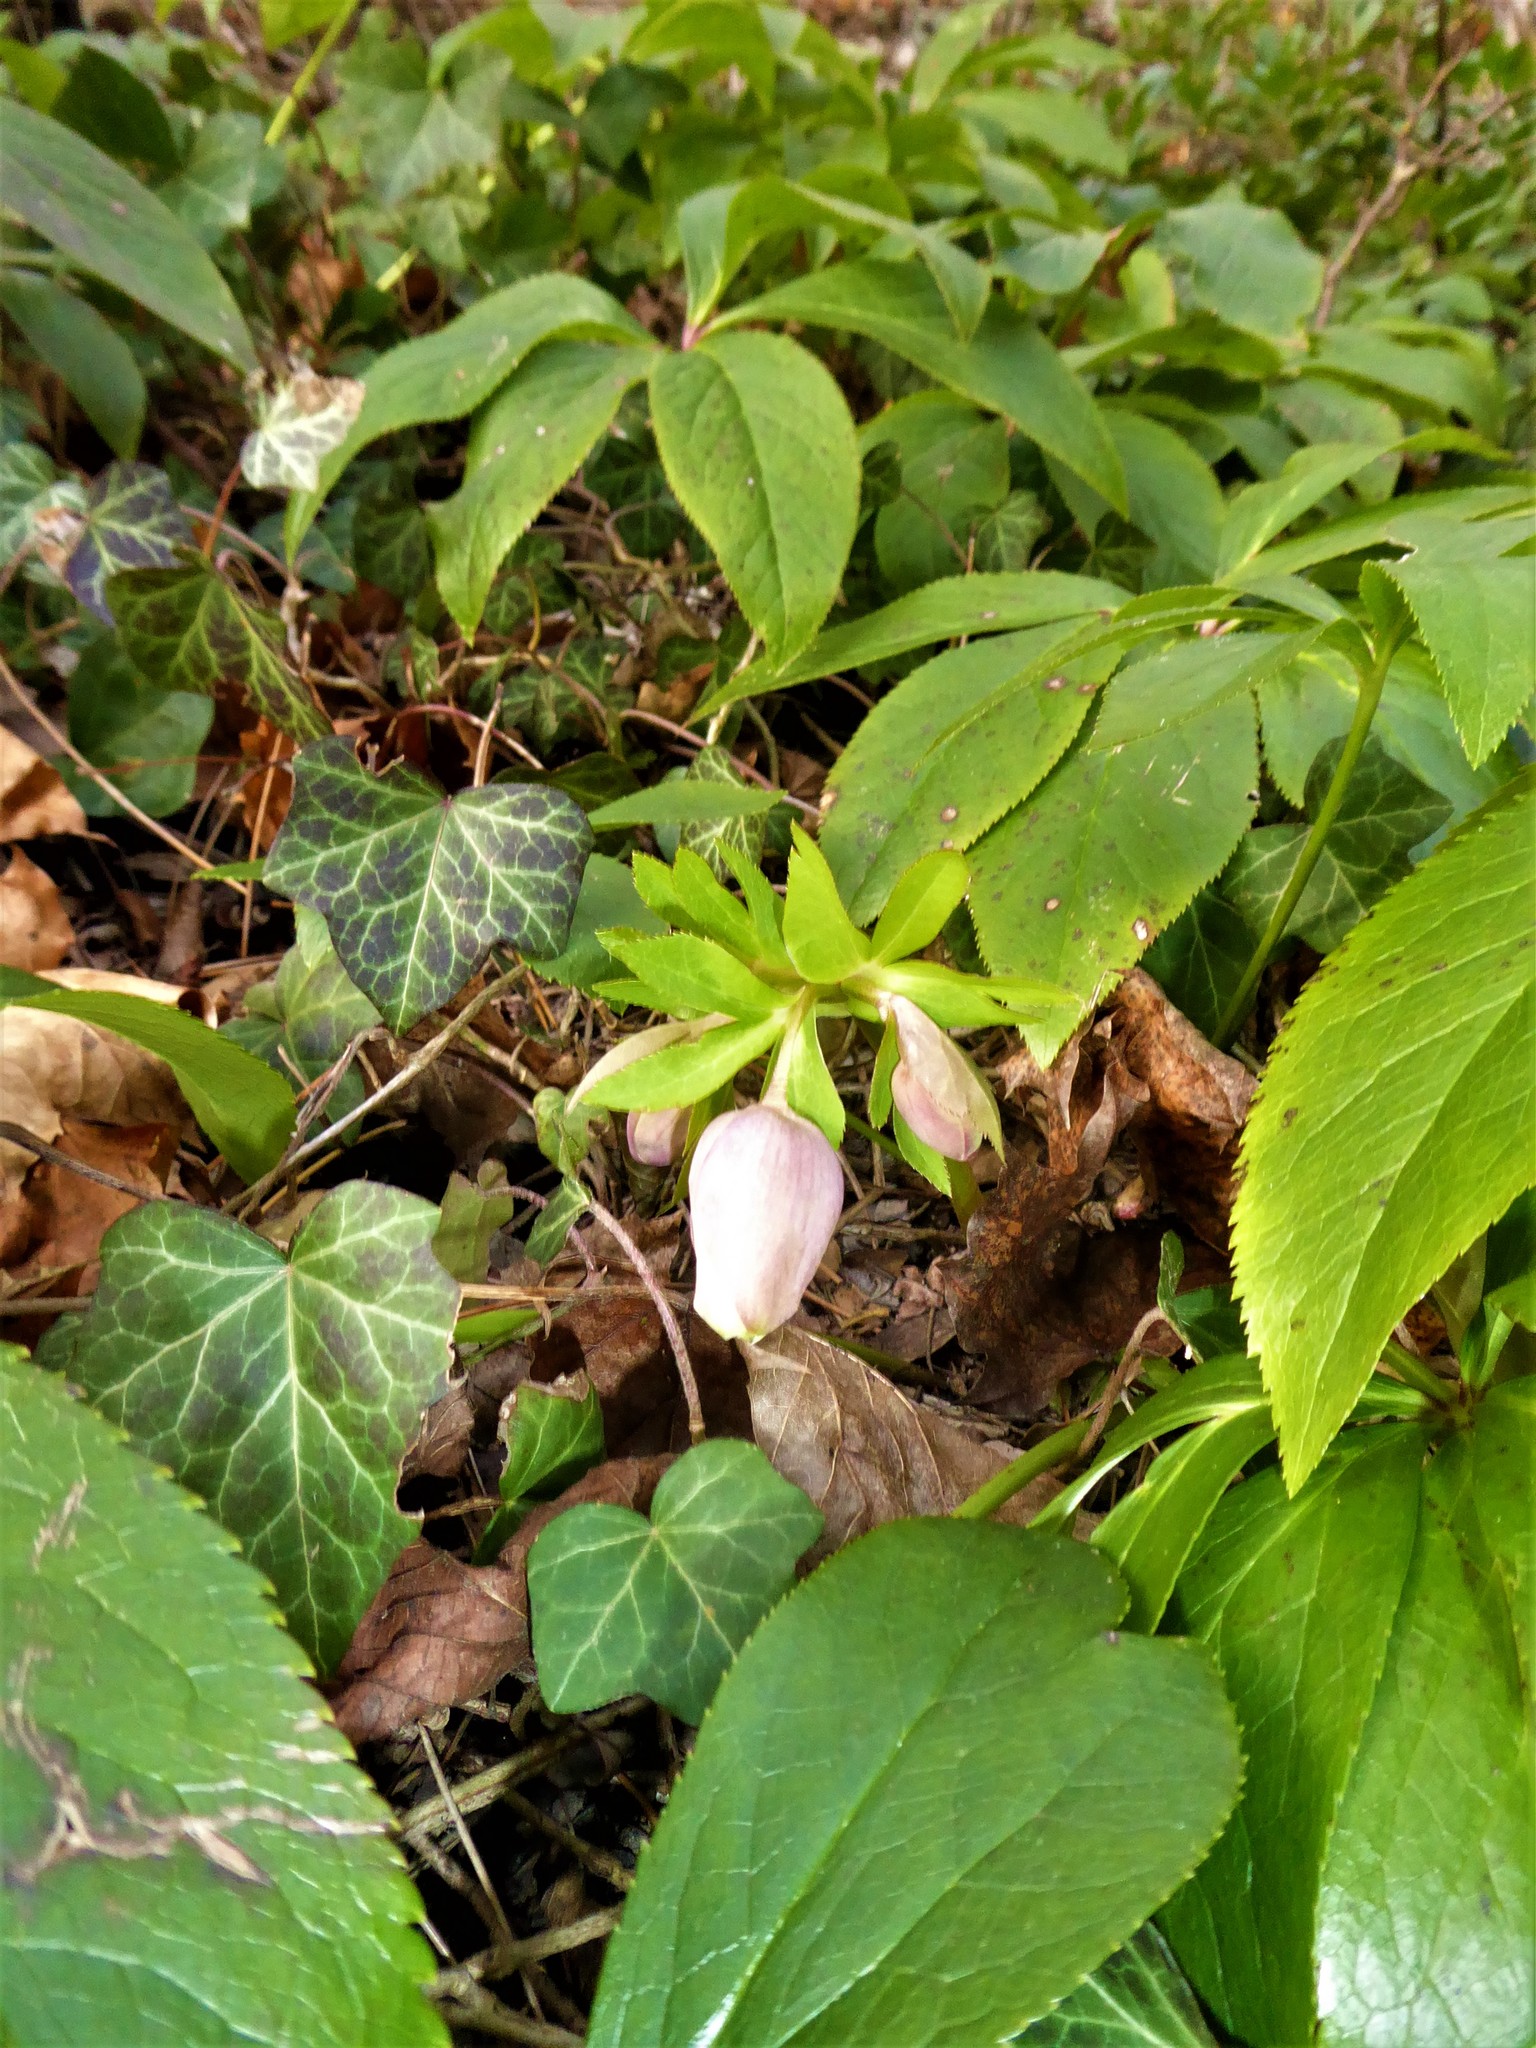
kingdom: Plantae
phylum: Tracheophyta
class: Magnoliopsida
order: Ranunculales
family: Ranunculaceae
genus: Helleborus
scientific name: Helleborus hybridus
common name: Hybrid lenten-rose
